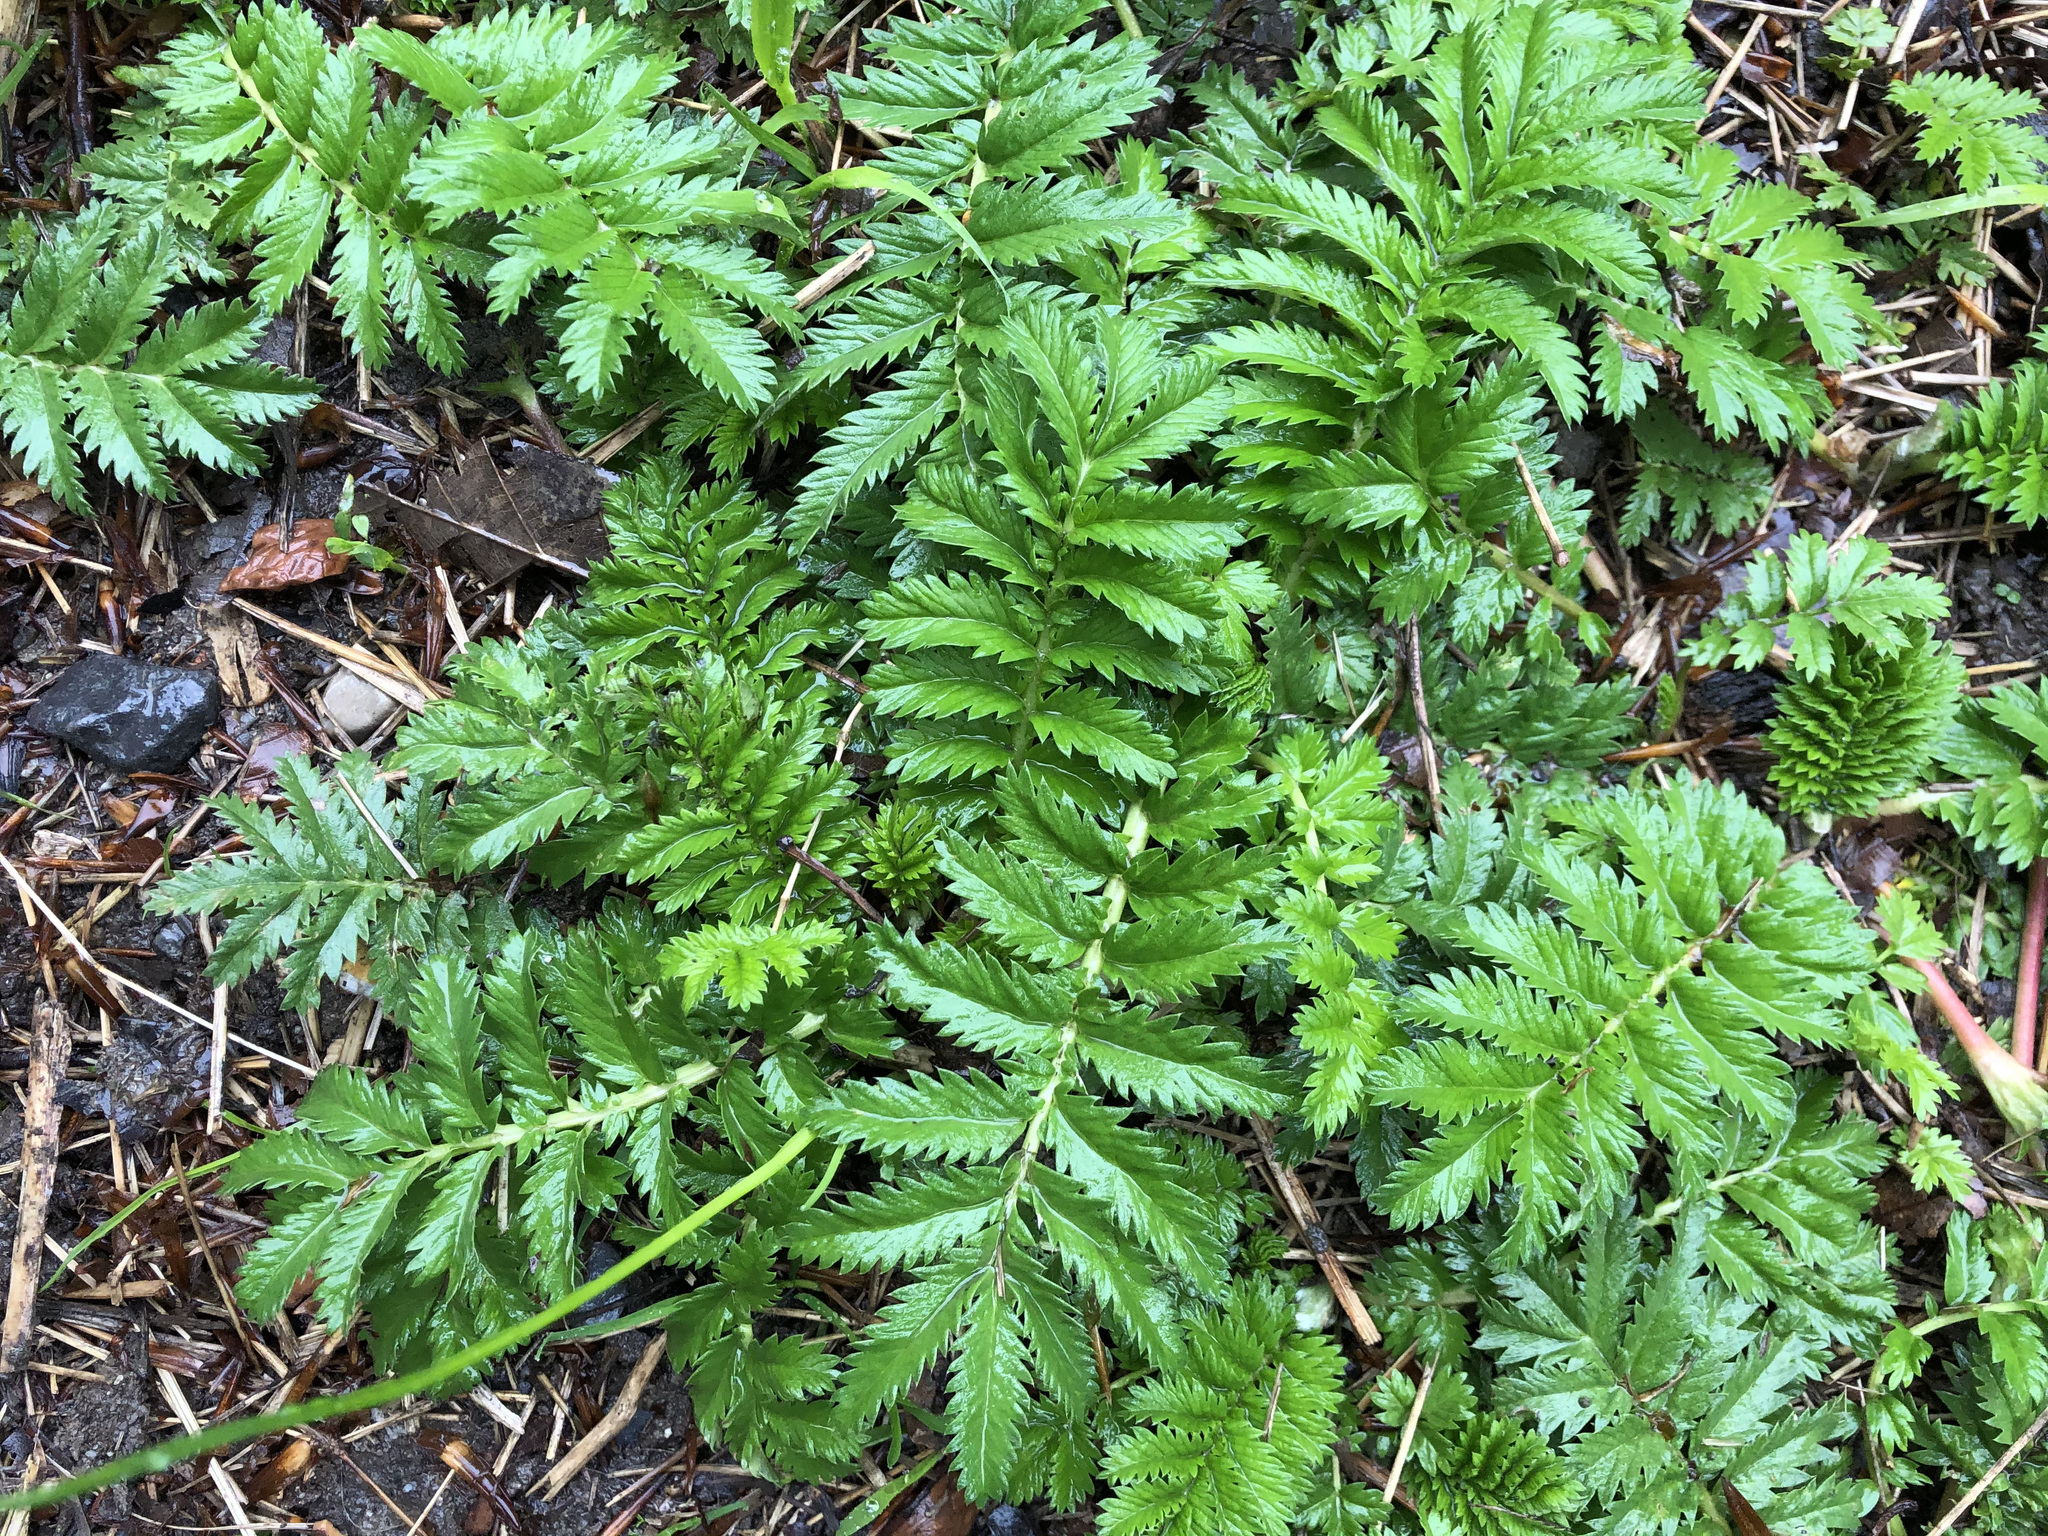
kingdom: Plantae
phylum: Tracheophyta
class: Magnoliopsida
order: Rosales
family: Rosaceae
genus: Argentina
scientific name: Argentina anserina
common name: Common silverweed
